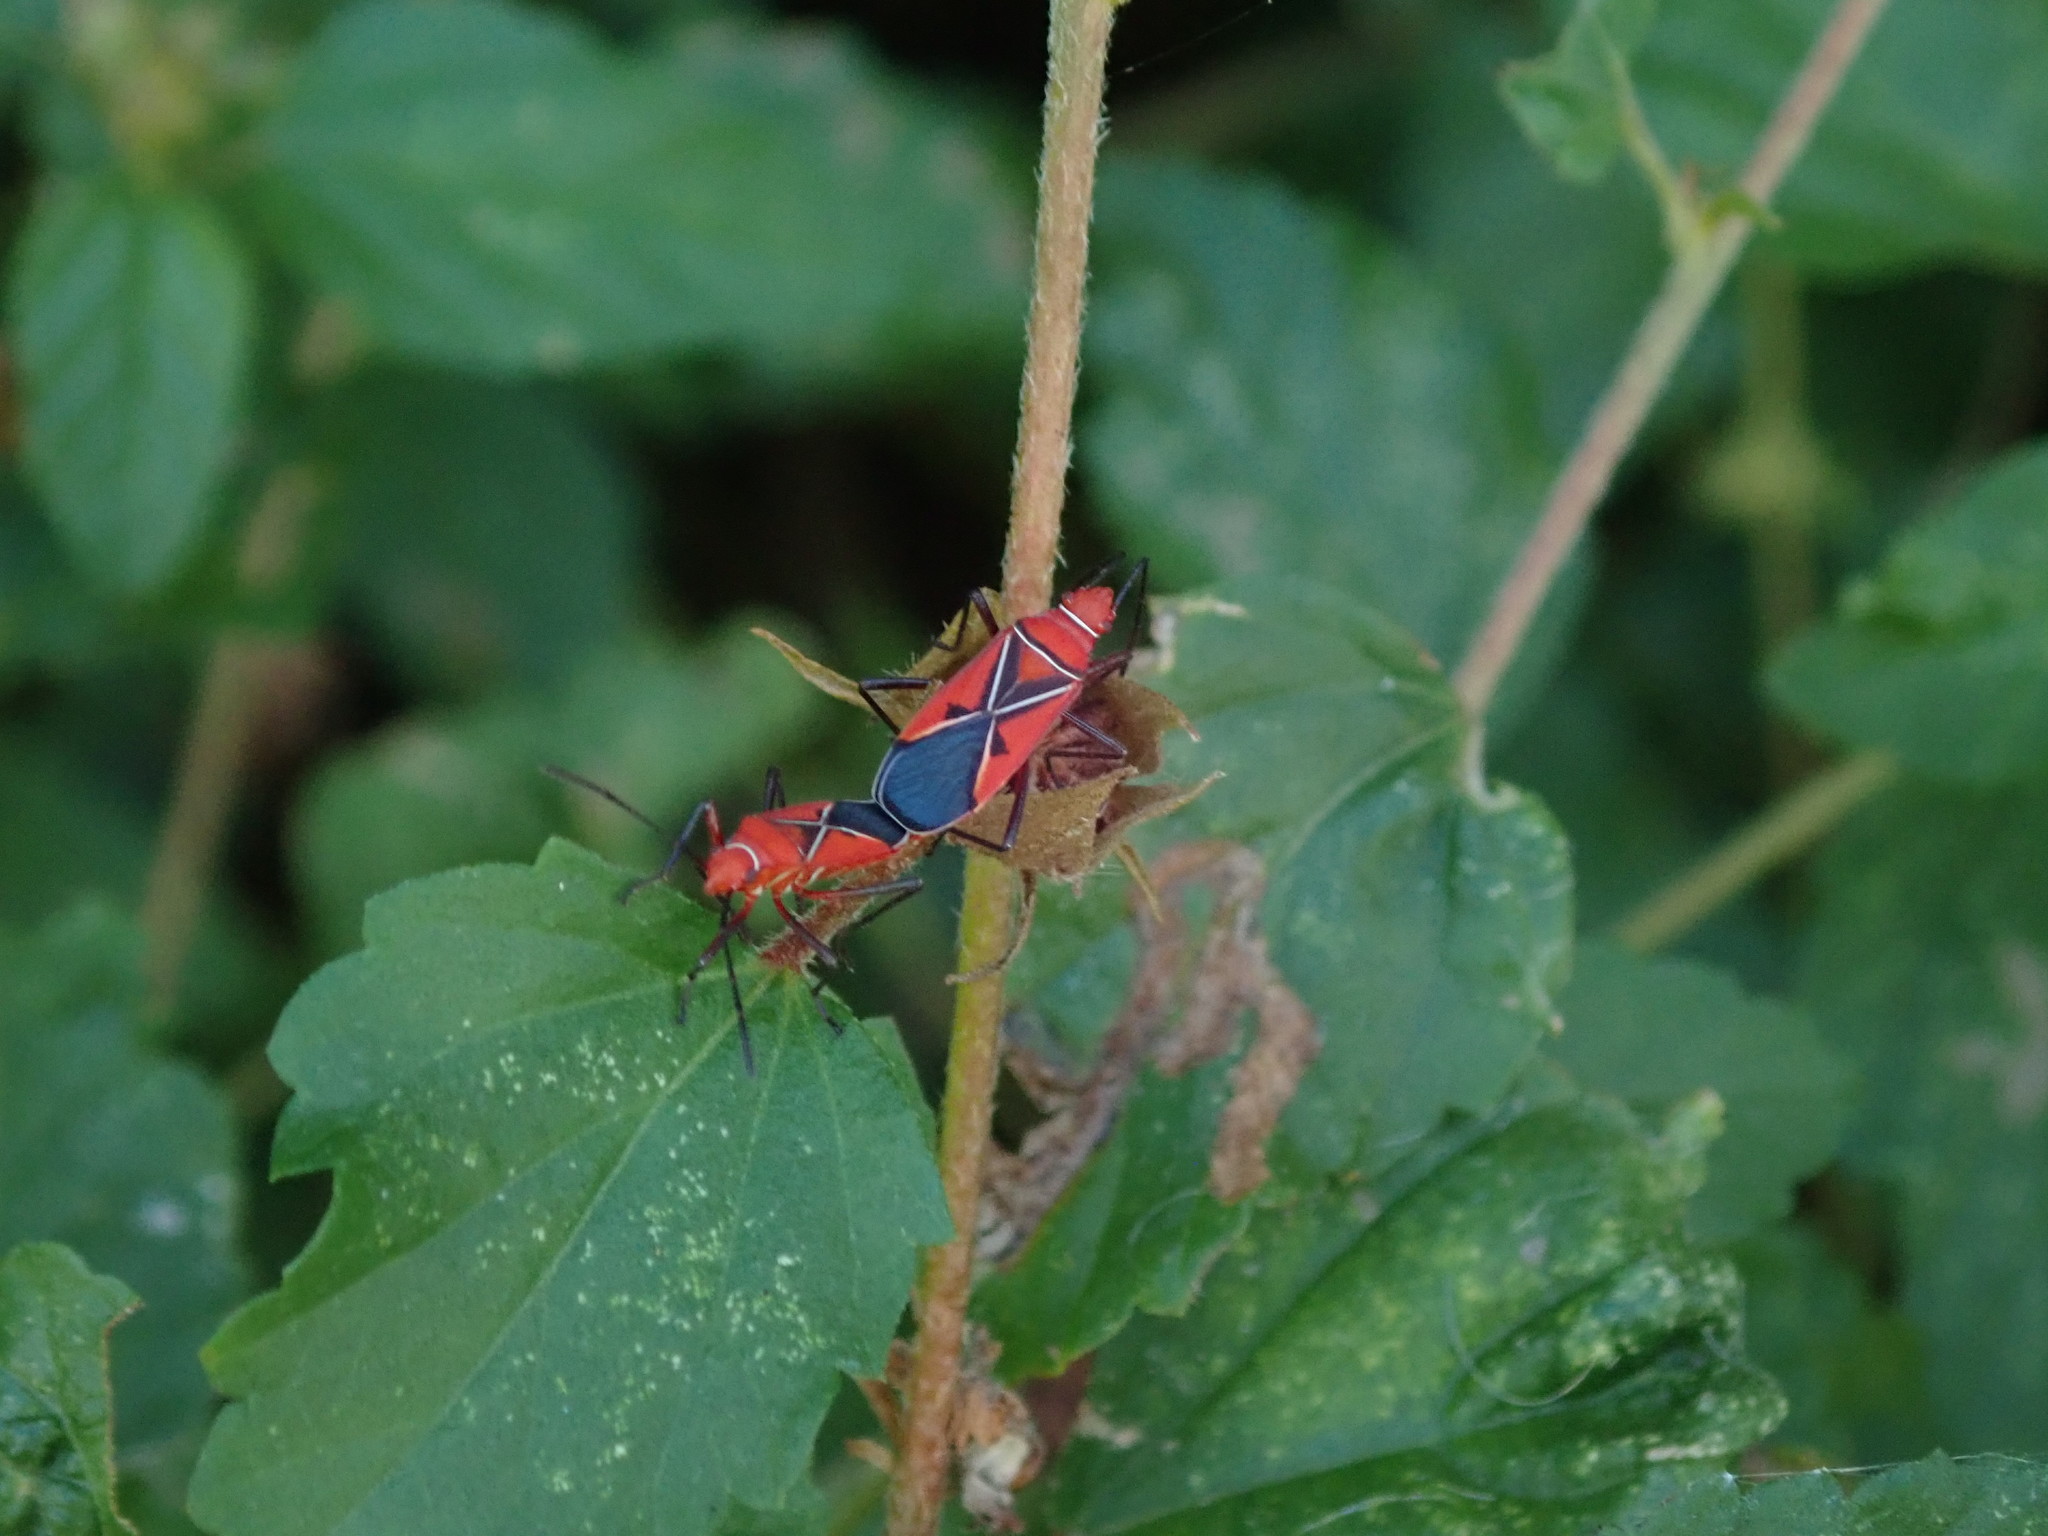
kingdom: Animalia
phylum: Arthropoda
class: Insecta
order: Hemiptera
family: Pyrrhocoridae
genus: Dysdercus
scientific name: Dysdercus andreae
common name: St. andrew's cotton stainer
